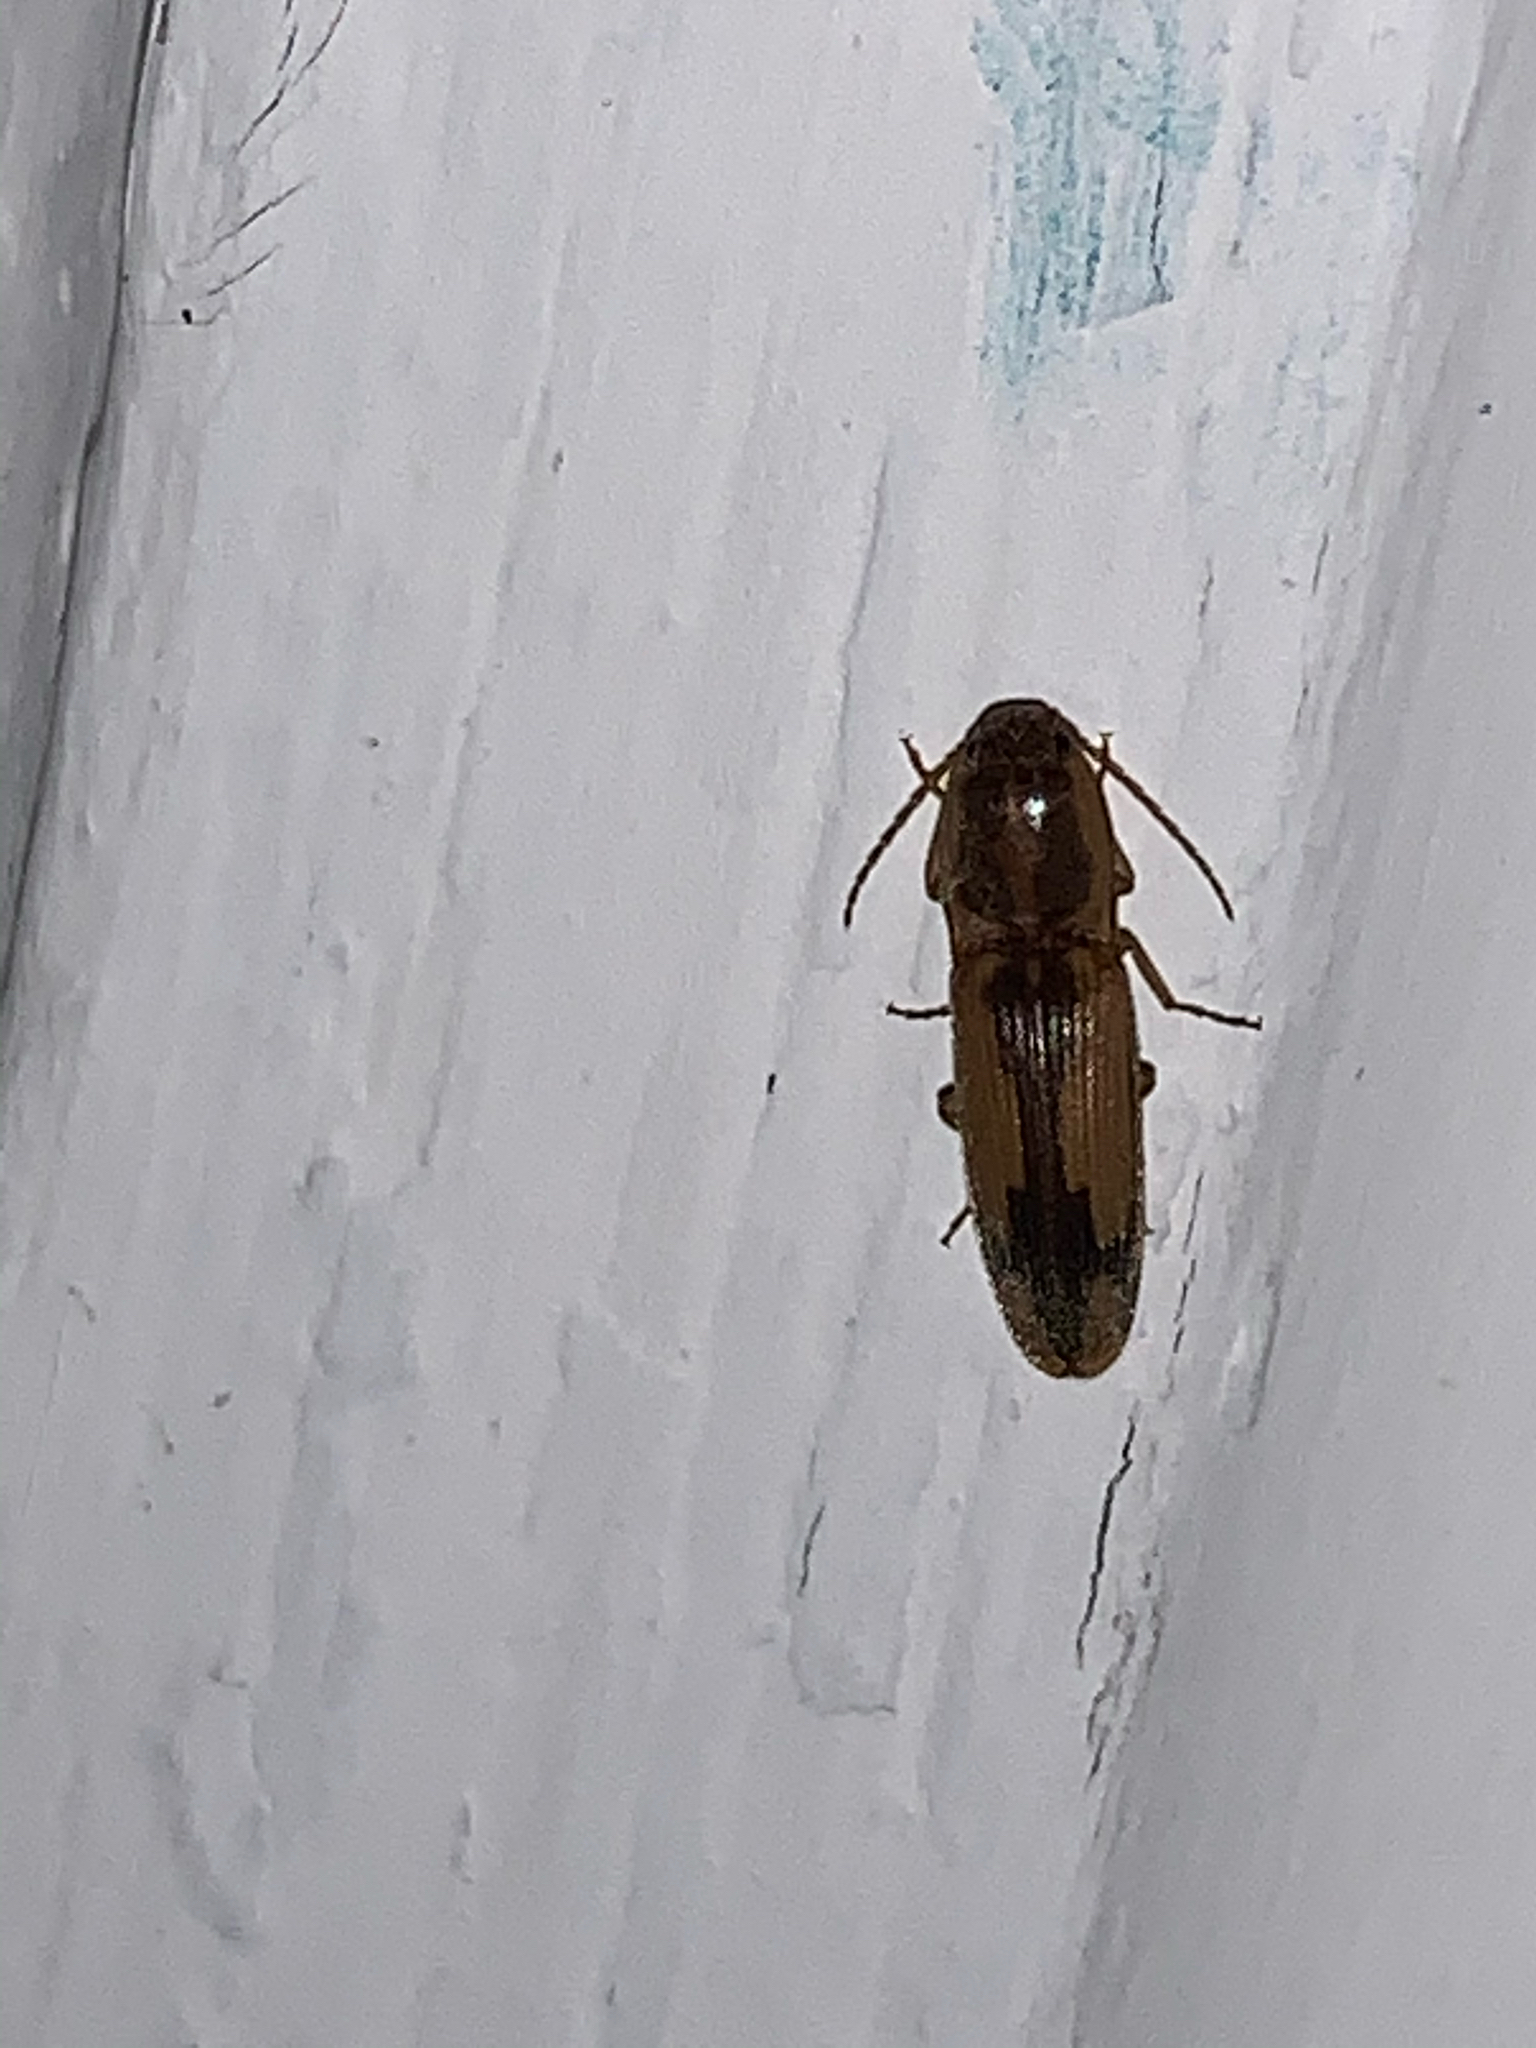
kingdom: Animalia
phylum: Arthropoda
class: Insecta
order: Coleoptera
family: Elateridae
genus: Monocrepidius
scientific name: Monocrepidius
